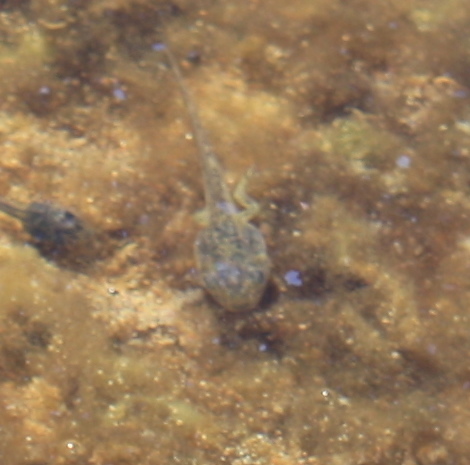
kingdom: Animalia
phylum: Chordata
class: Amphibia
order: Anura
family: Hylidae
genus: Pseudacris
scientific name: Pseudacris regilla
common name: Pacific chorus frog
